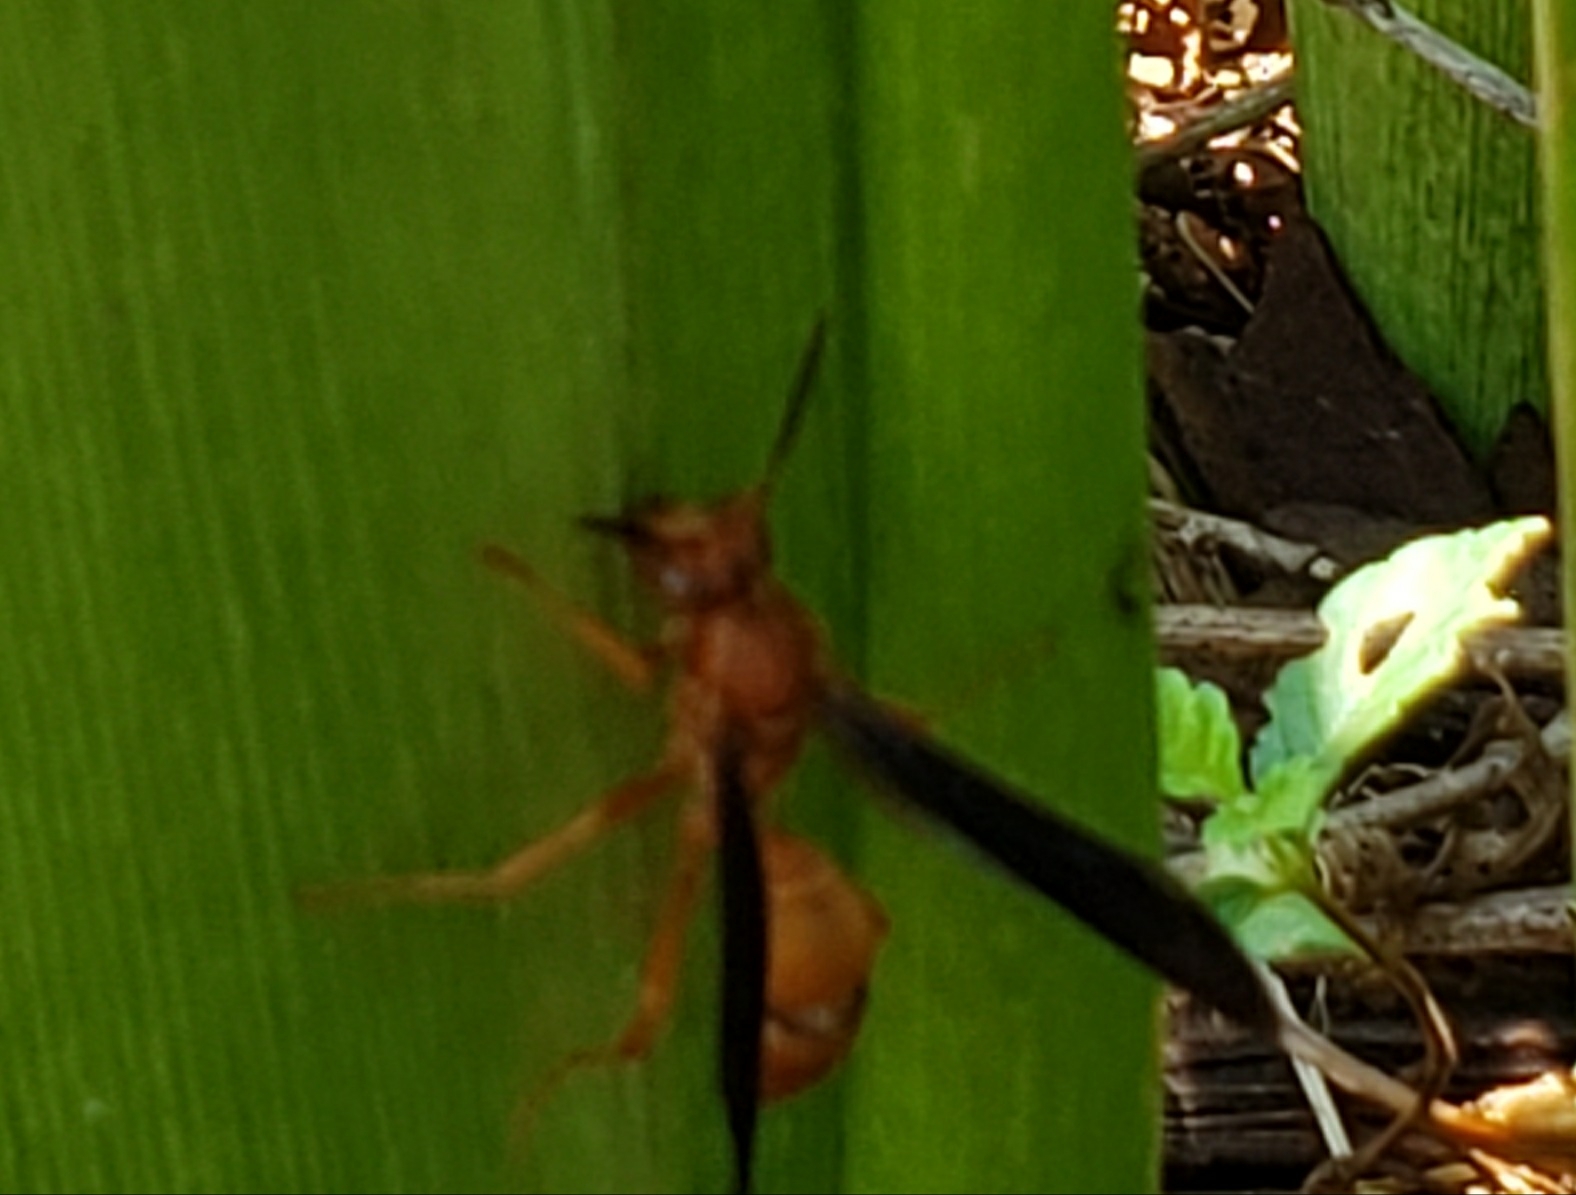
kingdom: Animalia
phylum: Arthropoda
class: Insecta
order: Hymenoptera
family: Vespidae
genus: Fuscopolistes
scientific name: Fuscopolistes
